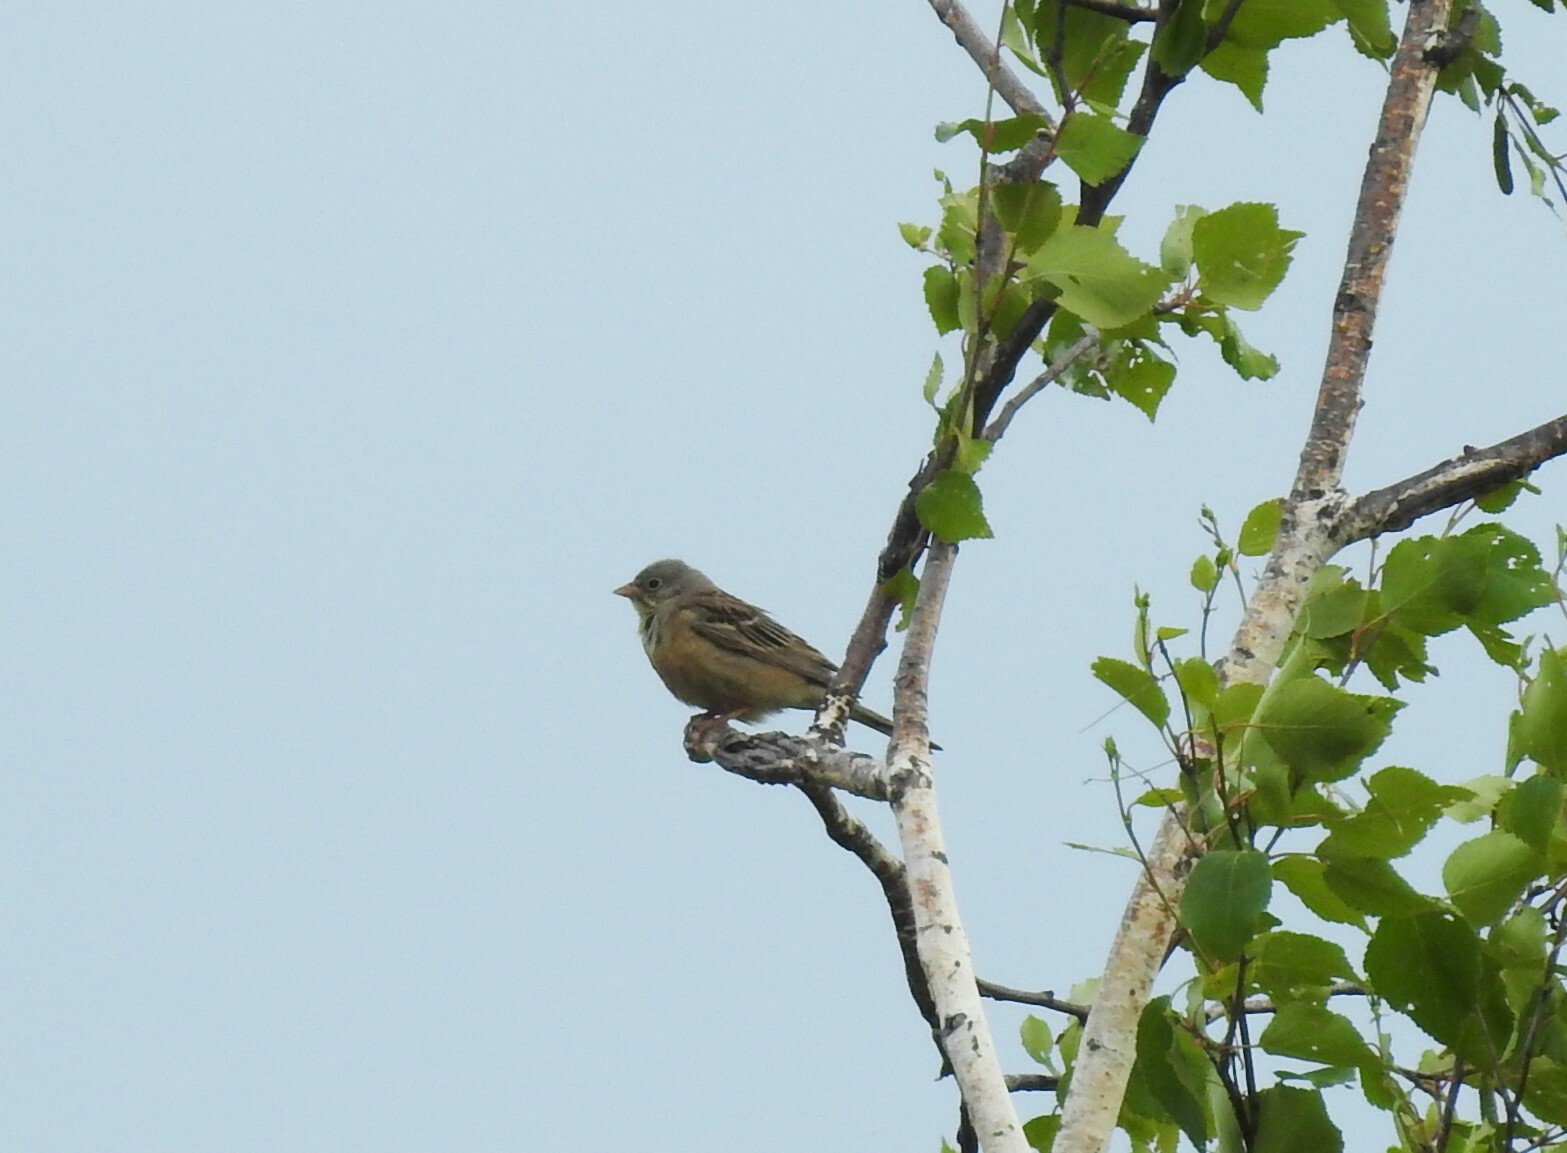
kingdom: Animalia
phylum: Chordata
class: Aves
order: Passeriformes
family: Emberizidae
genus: Emberiza
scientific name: Emberiza hortulana
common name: Ortolan bunting
